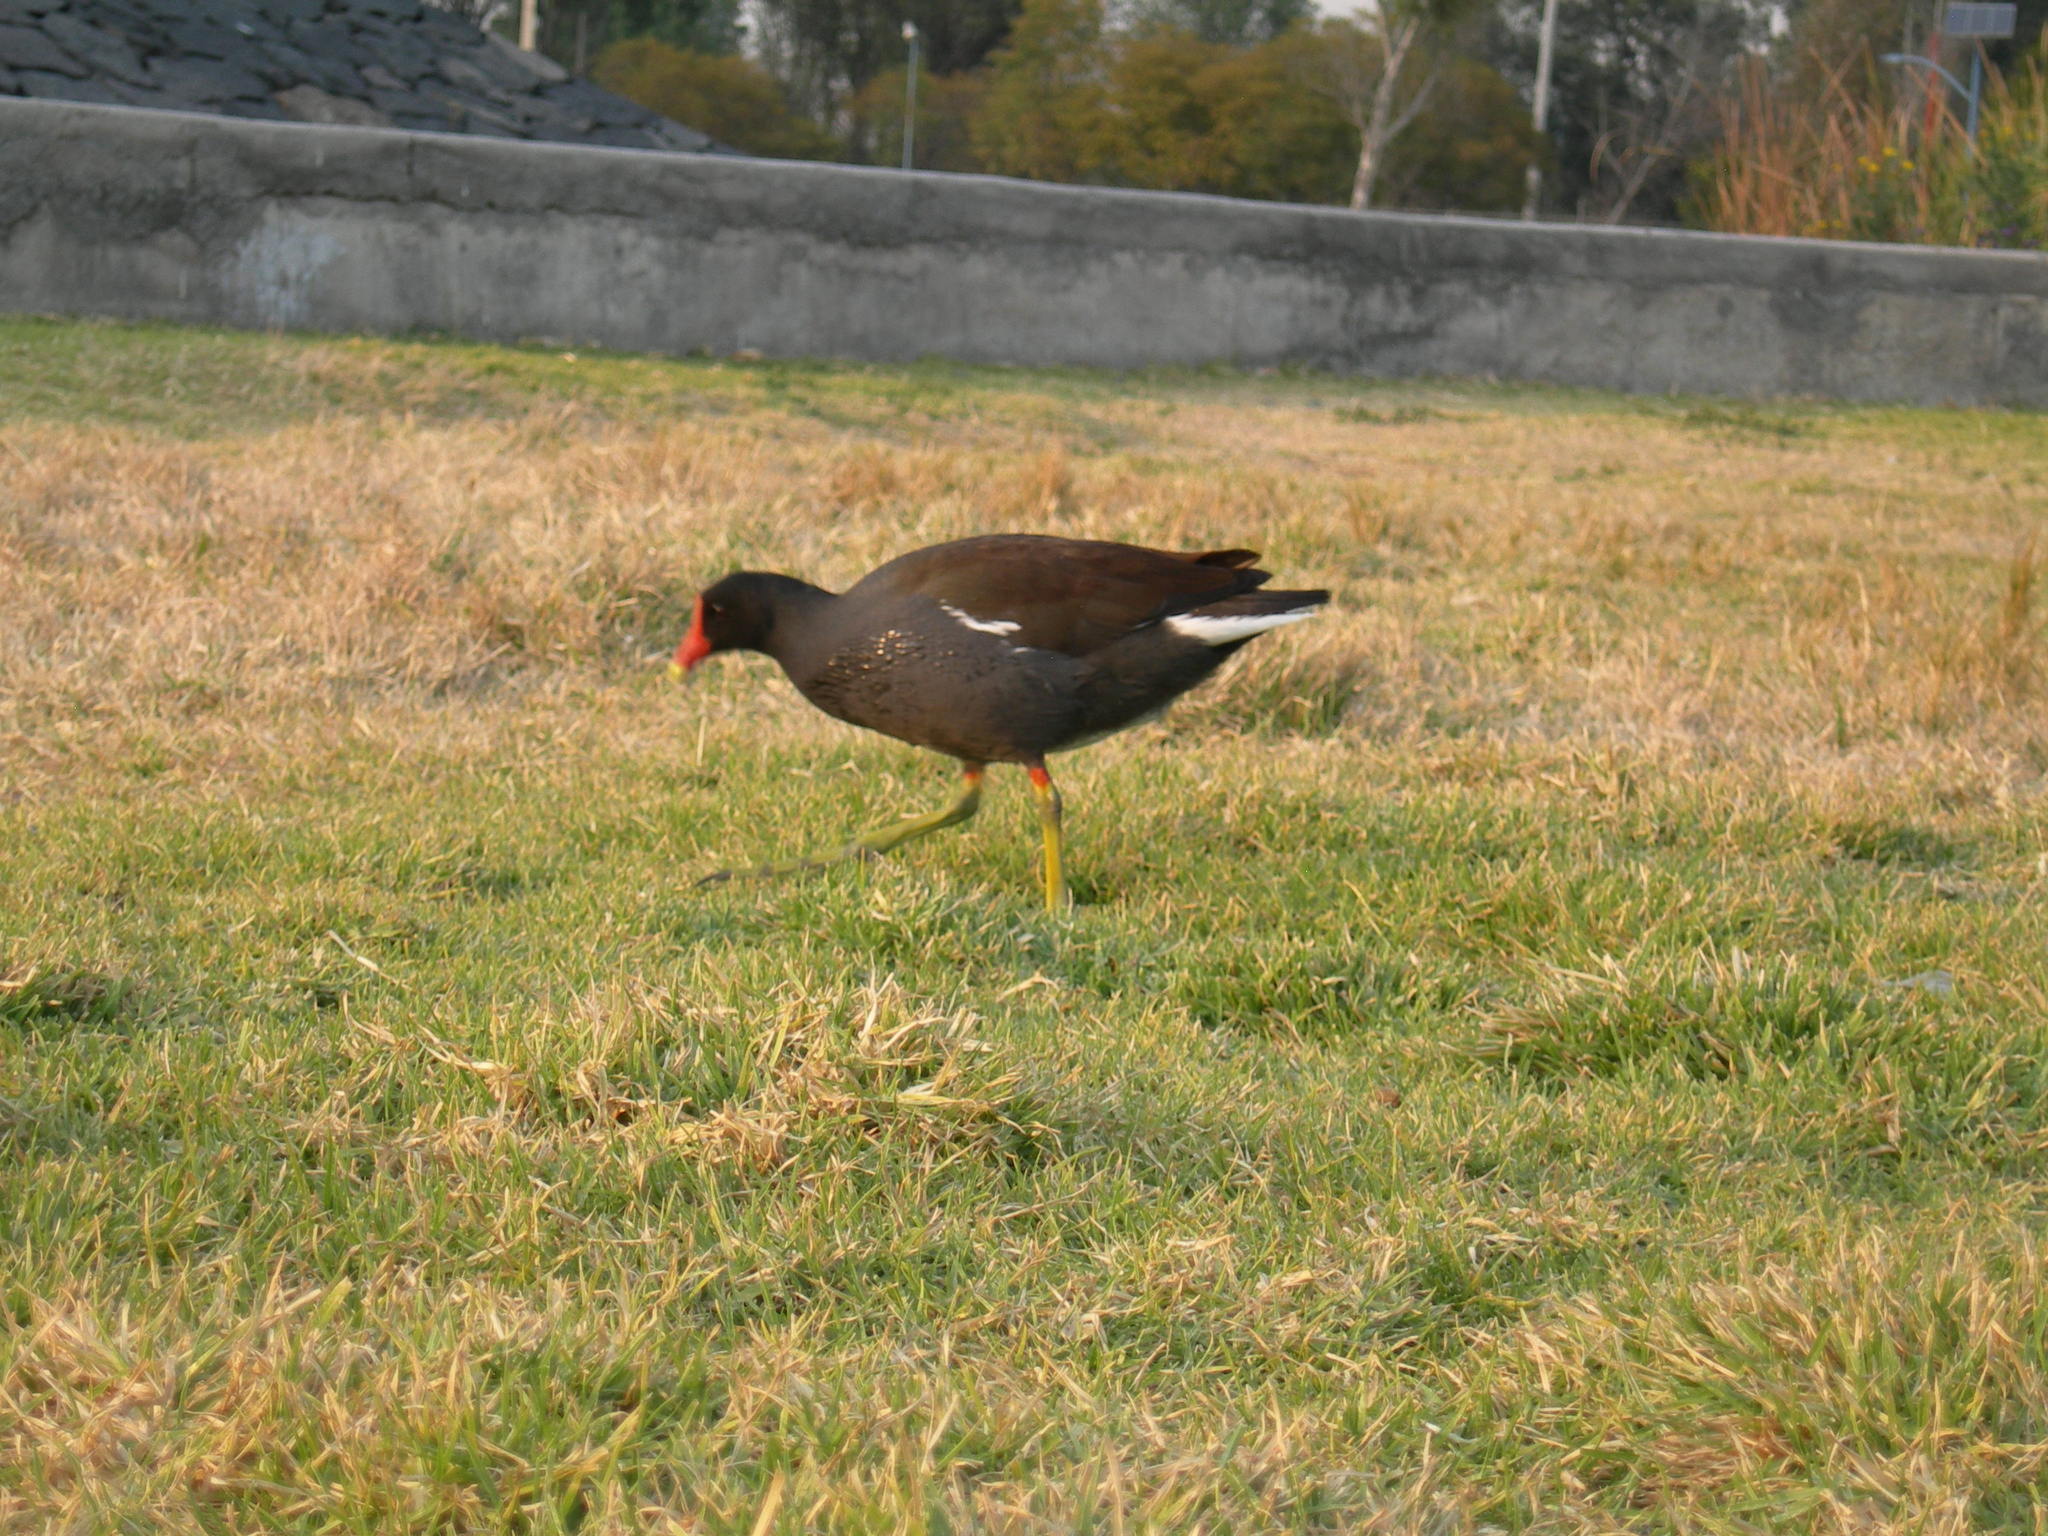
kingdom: Animalia
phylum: Chordata
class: Aves
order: Gruiformes
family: Rallidae
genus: Gallinula
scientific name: Gallinula chloropus
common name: Common moorhen
